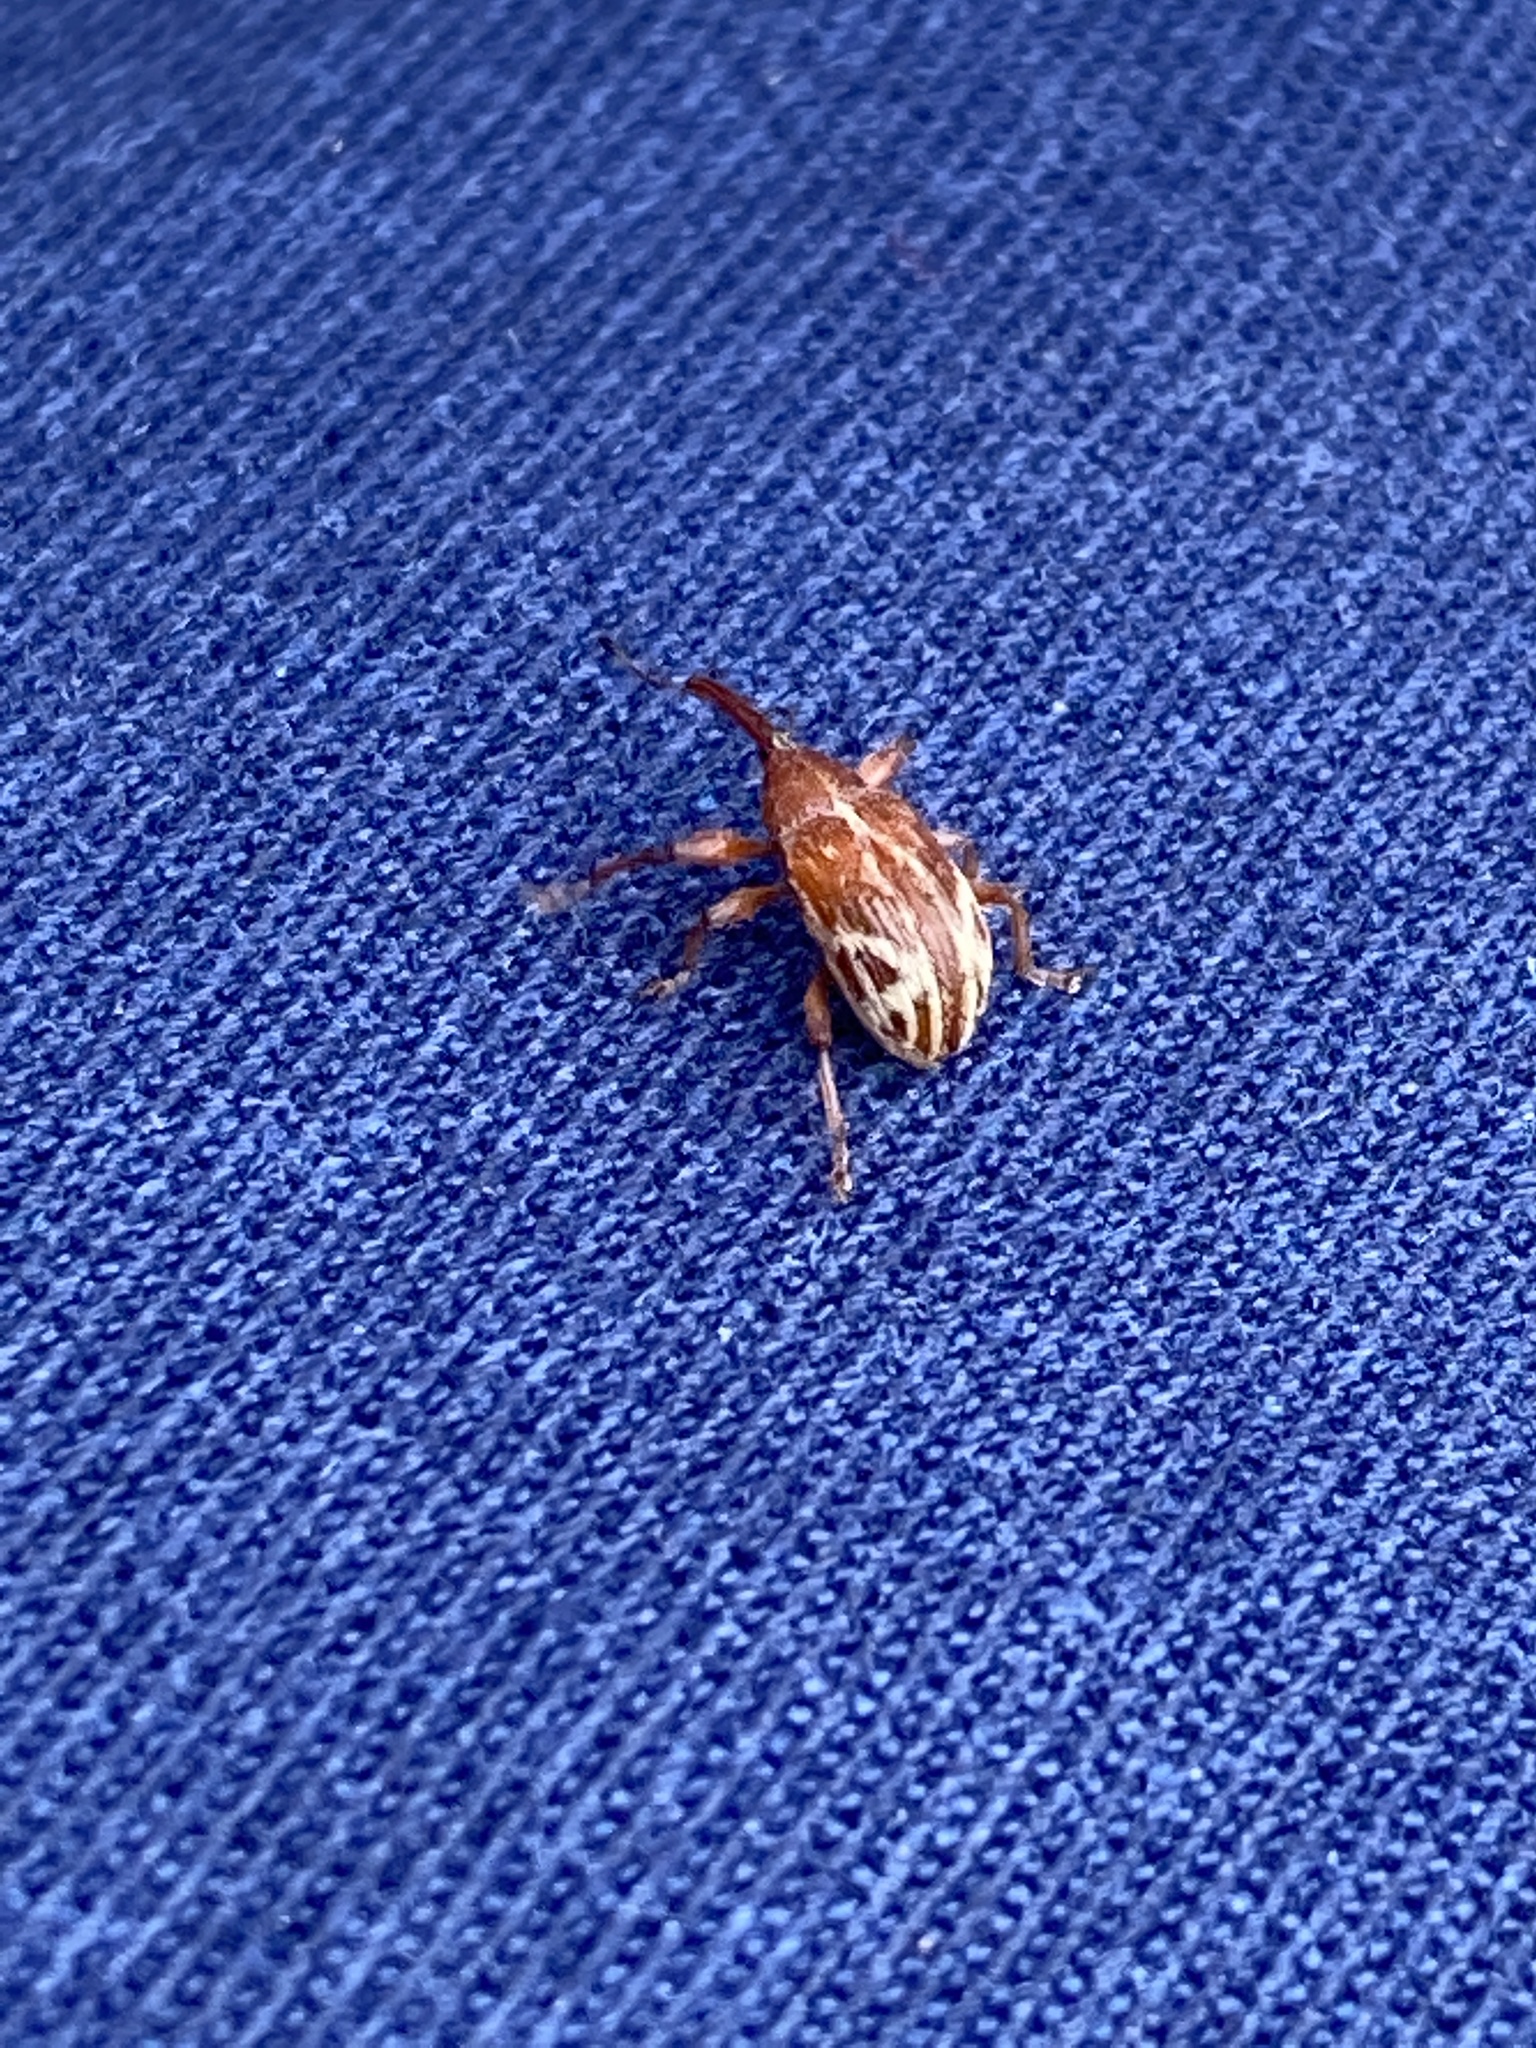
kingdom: Animalia
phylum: Arthropoda
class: Insecta
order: Coleoptera
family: Curculionidae
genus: Anthonomus
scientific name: Anthonomus fulvus
